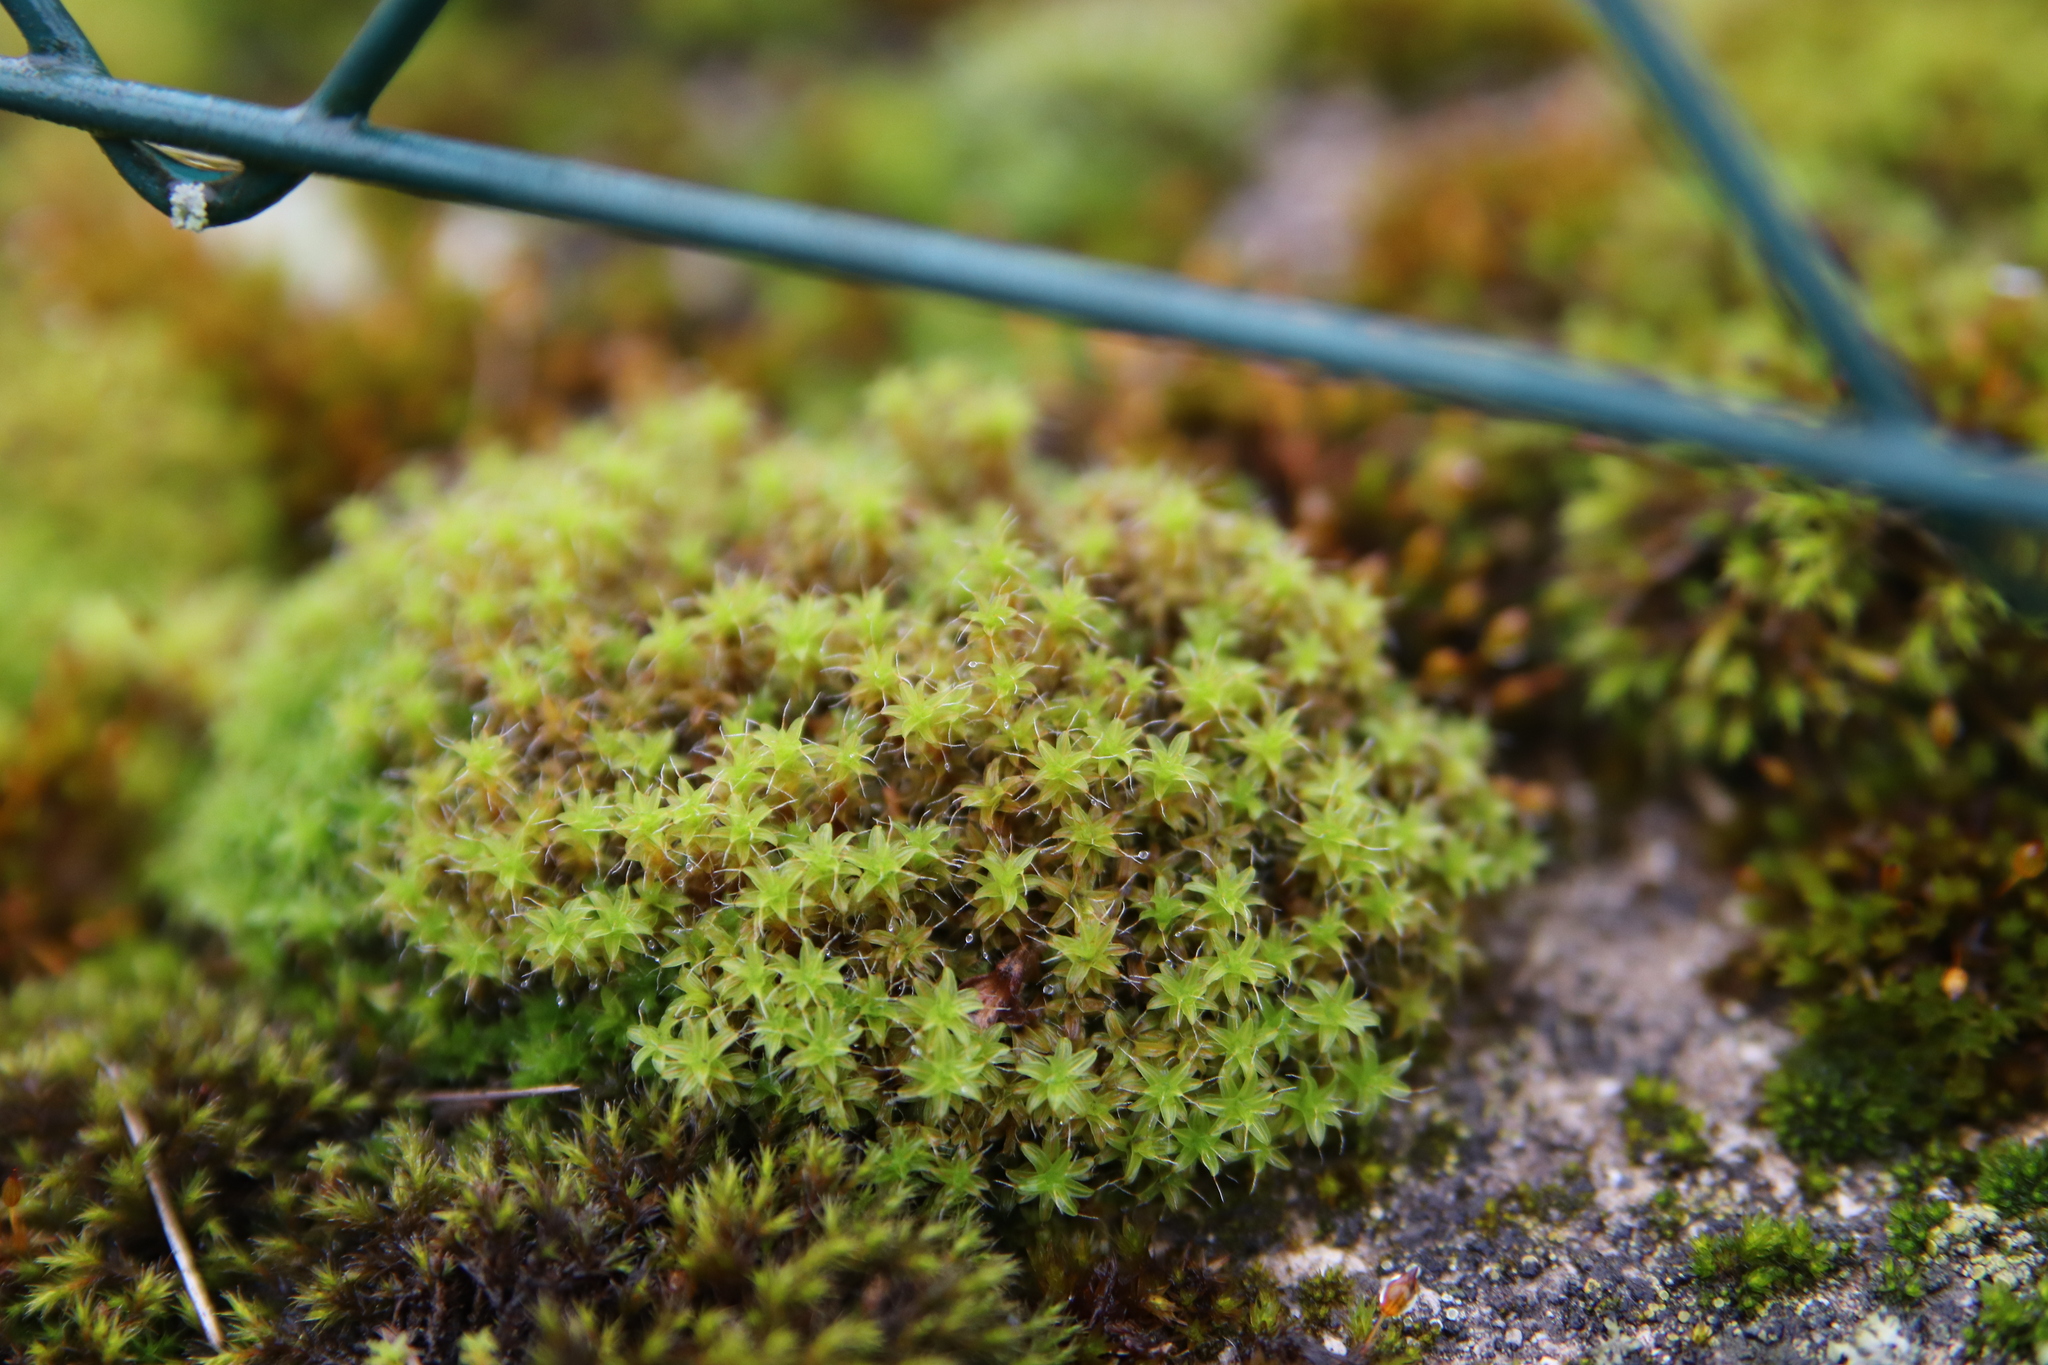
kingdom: Plantae
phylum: Bryophyta
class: Bryopsida
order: Pottiales
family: Pottiaceae
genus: Syntrichia
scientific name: Syntrichia ruralis
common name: Sidewalk screw moss
